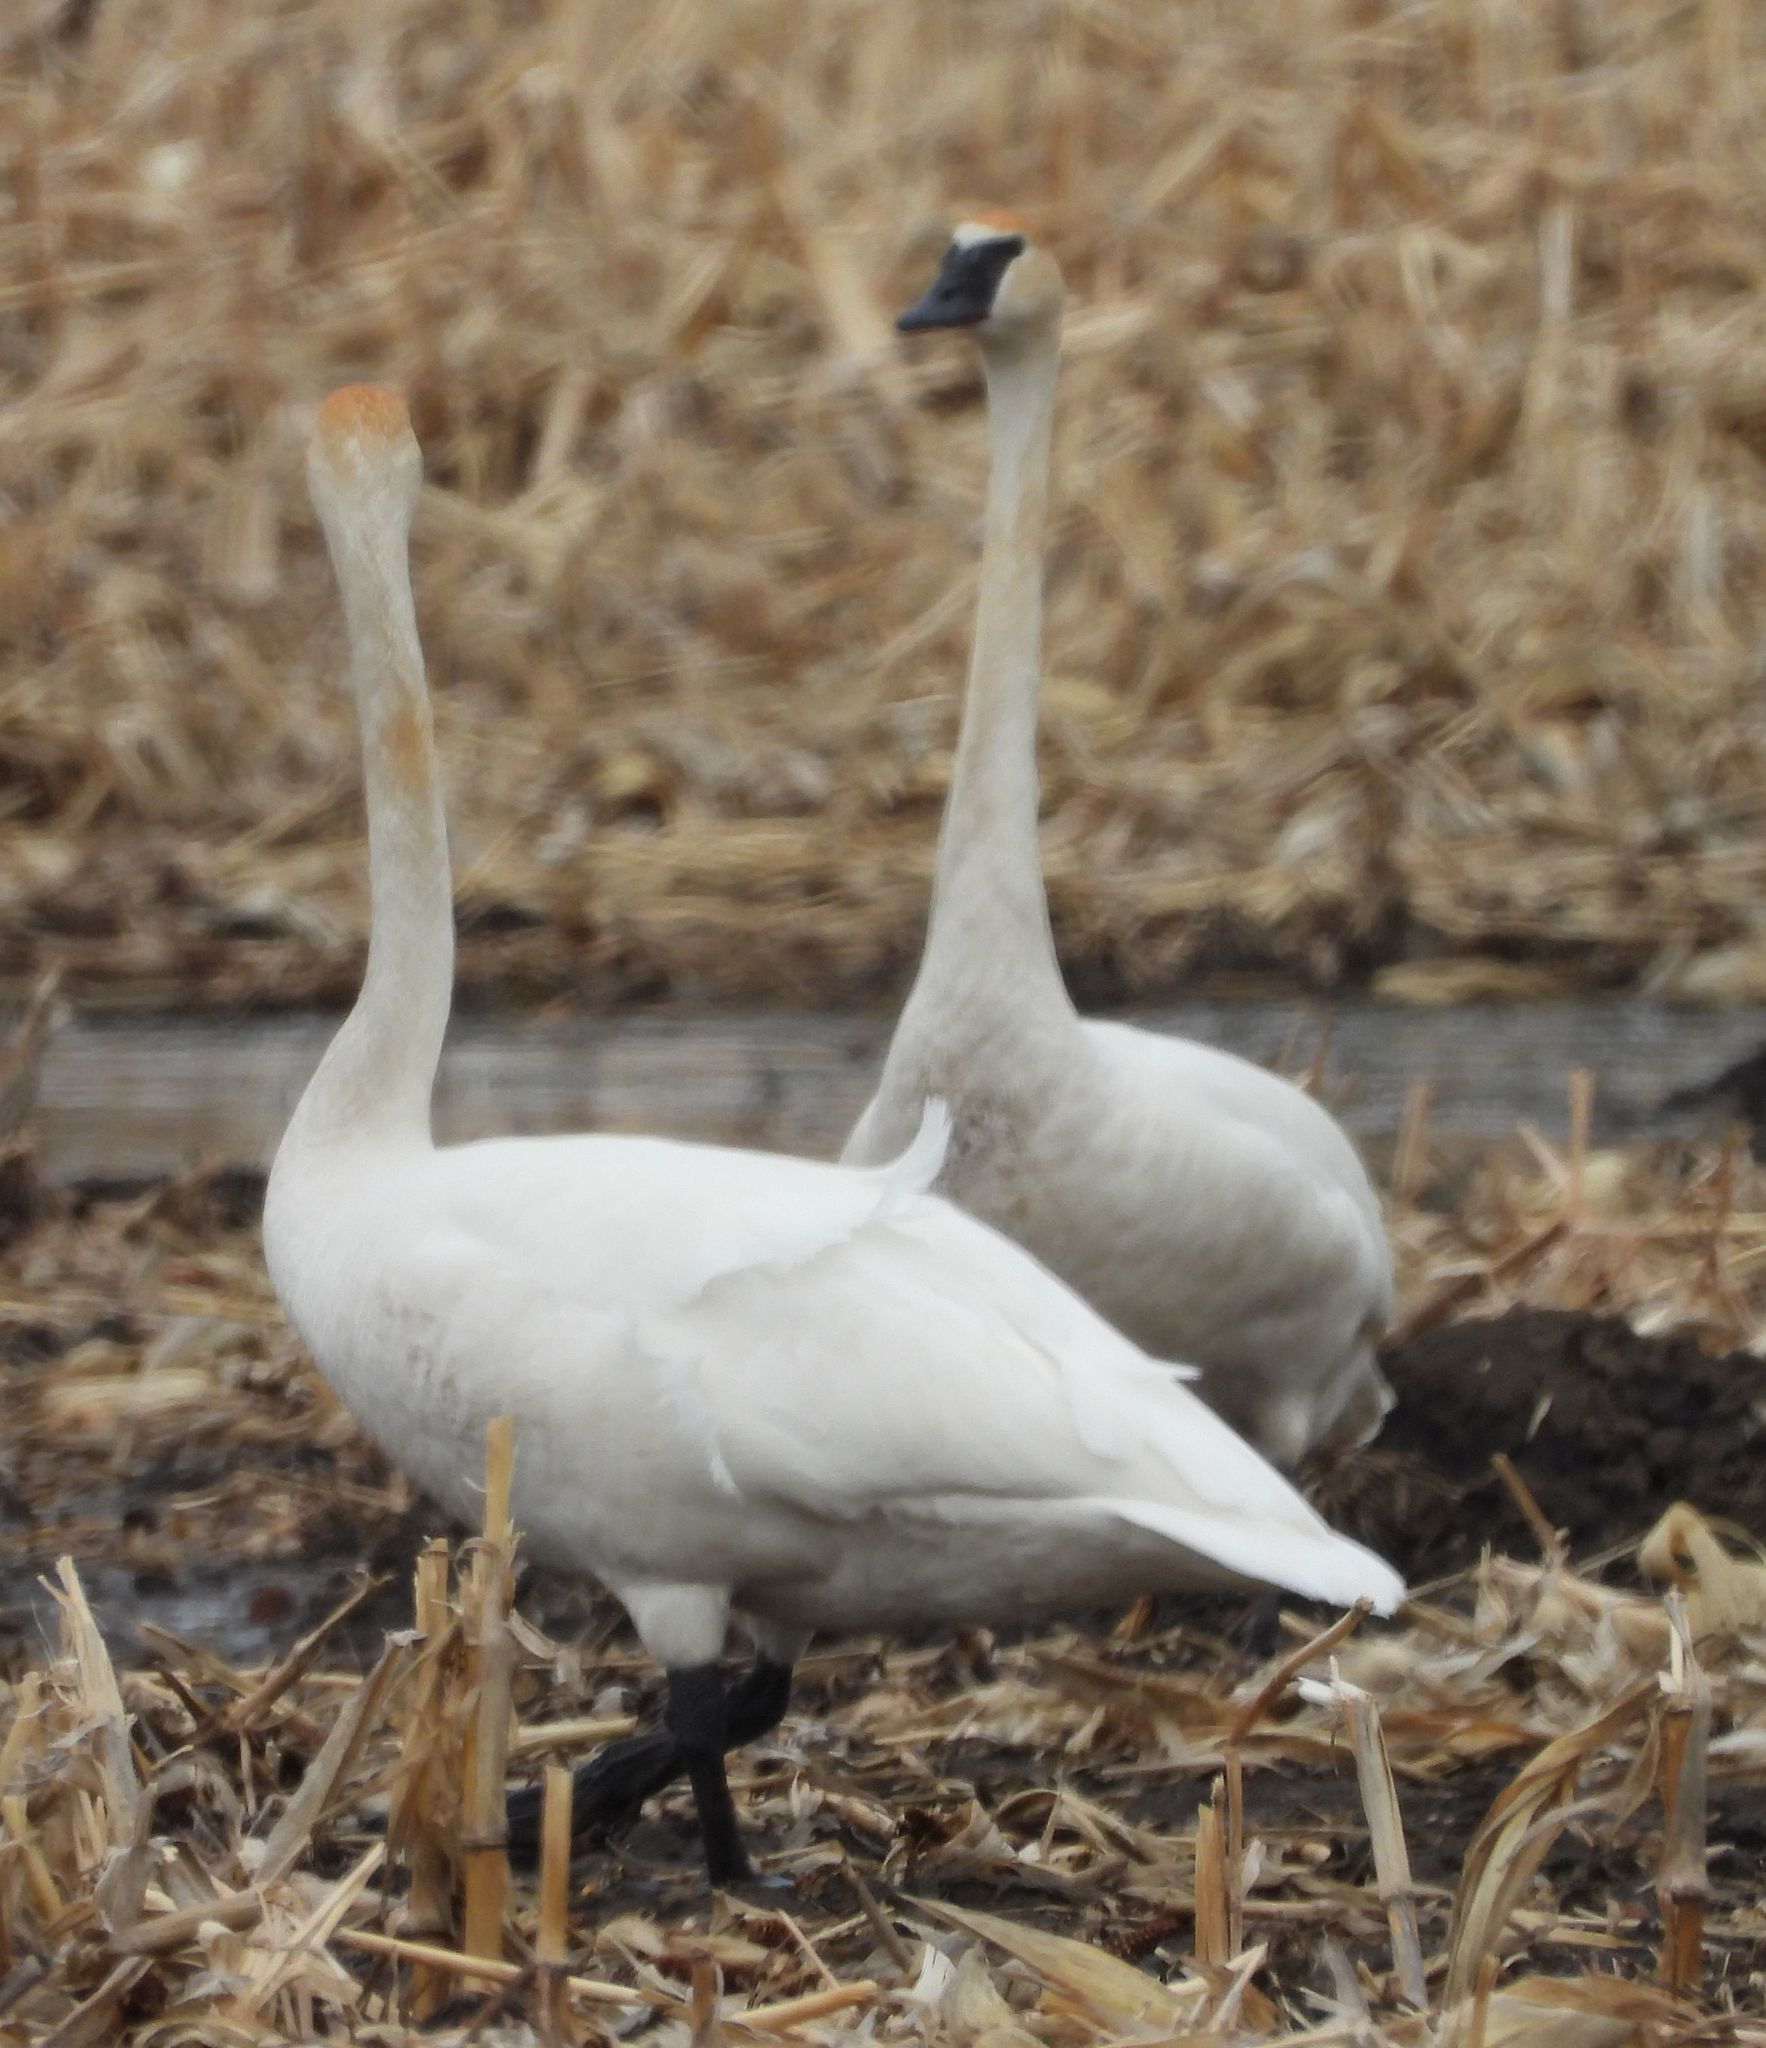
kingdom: Animalia
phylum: Chordata
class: Aves
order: Anseriformes
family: Anatidae
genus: Cygnus
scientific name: Cygnus buccinator
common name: Trumpeter swan
